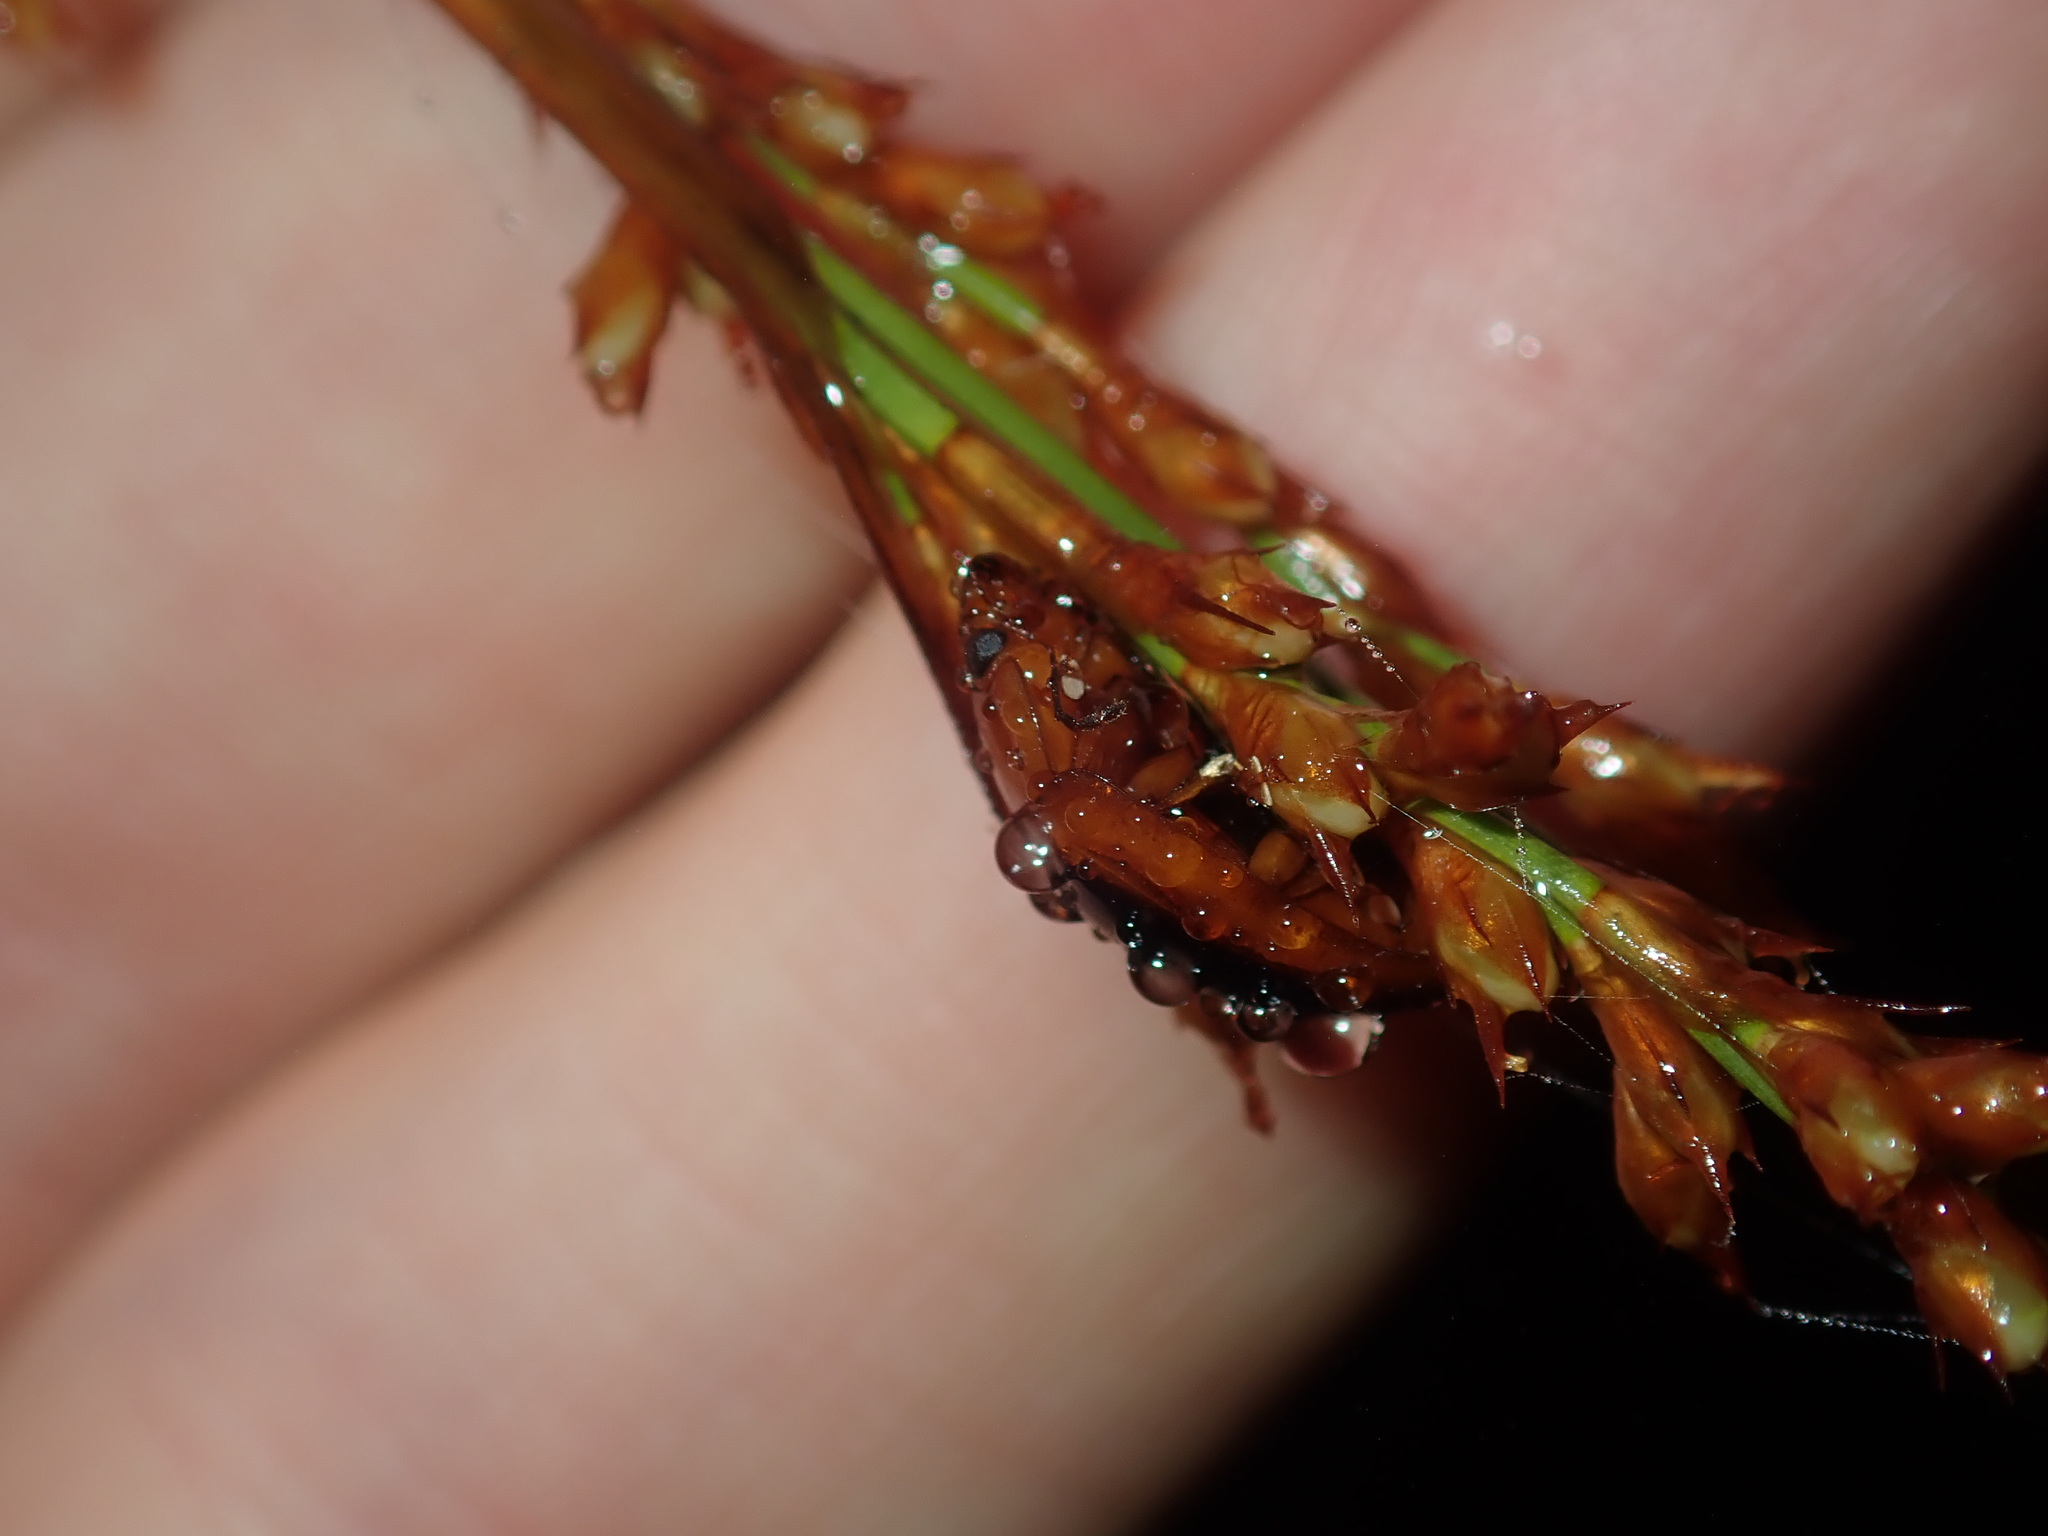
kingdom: Animalia
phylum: Arthropoda
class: Insecta
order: Coleoptera
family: Chrysomelidae
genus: Paropsisterna
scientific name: Paropsisterna
